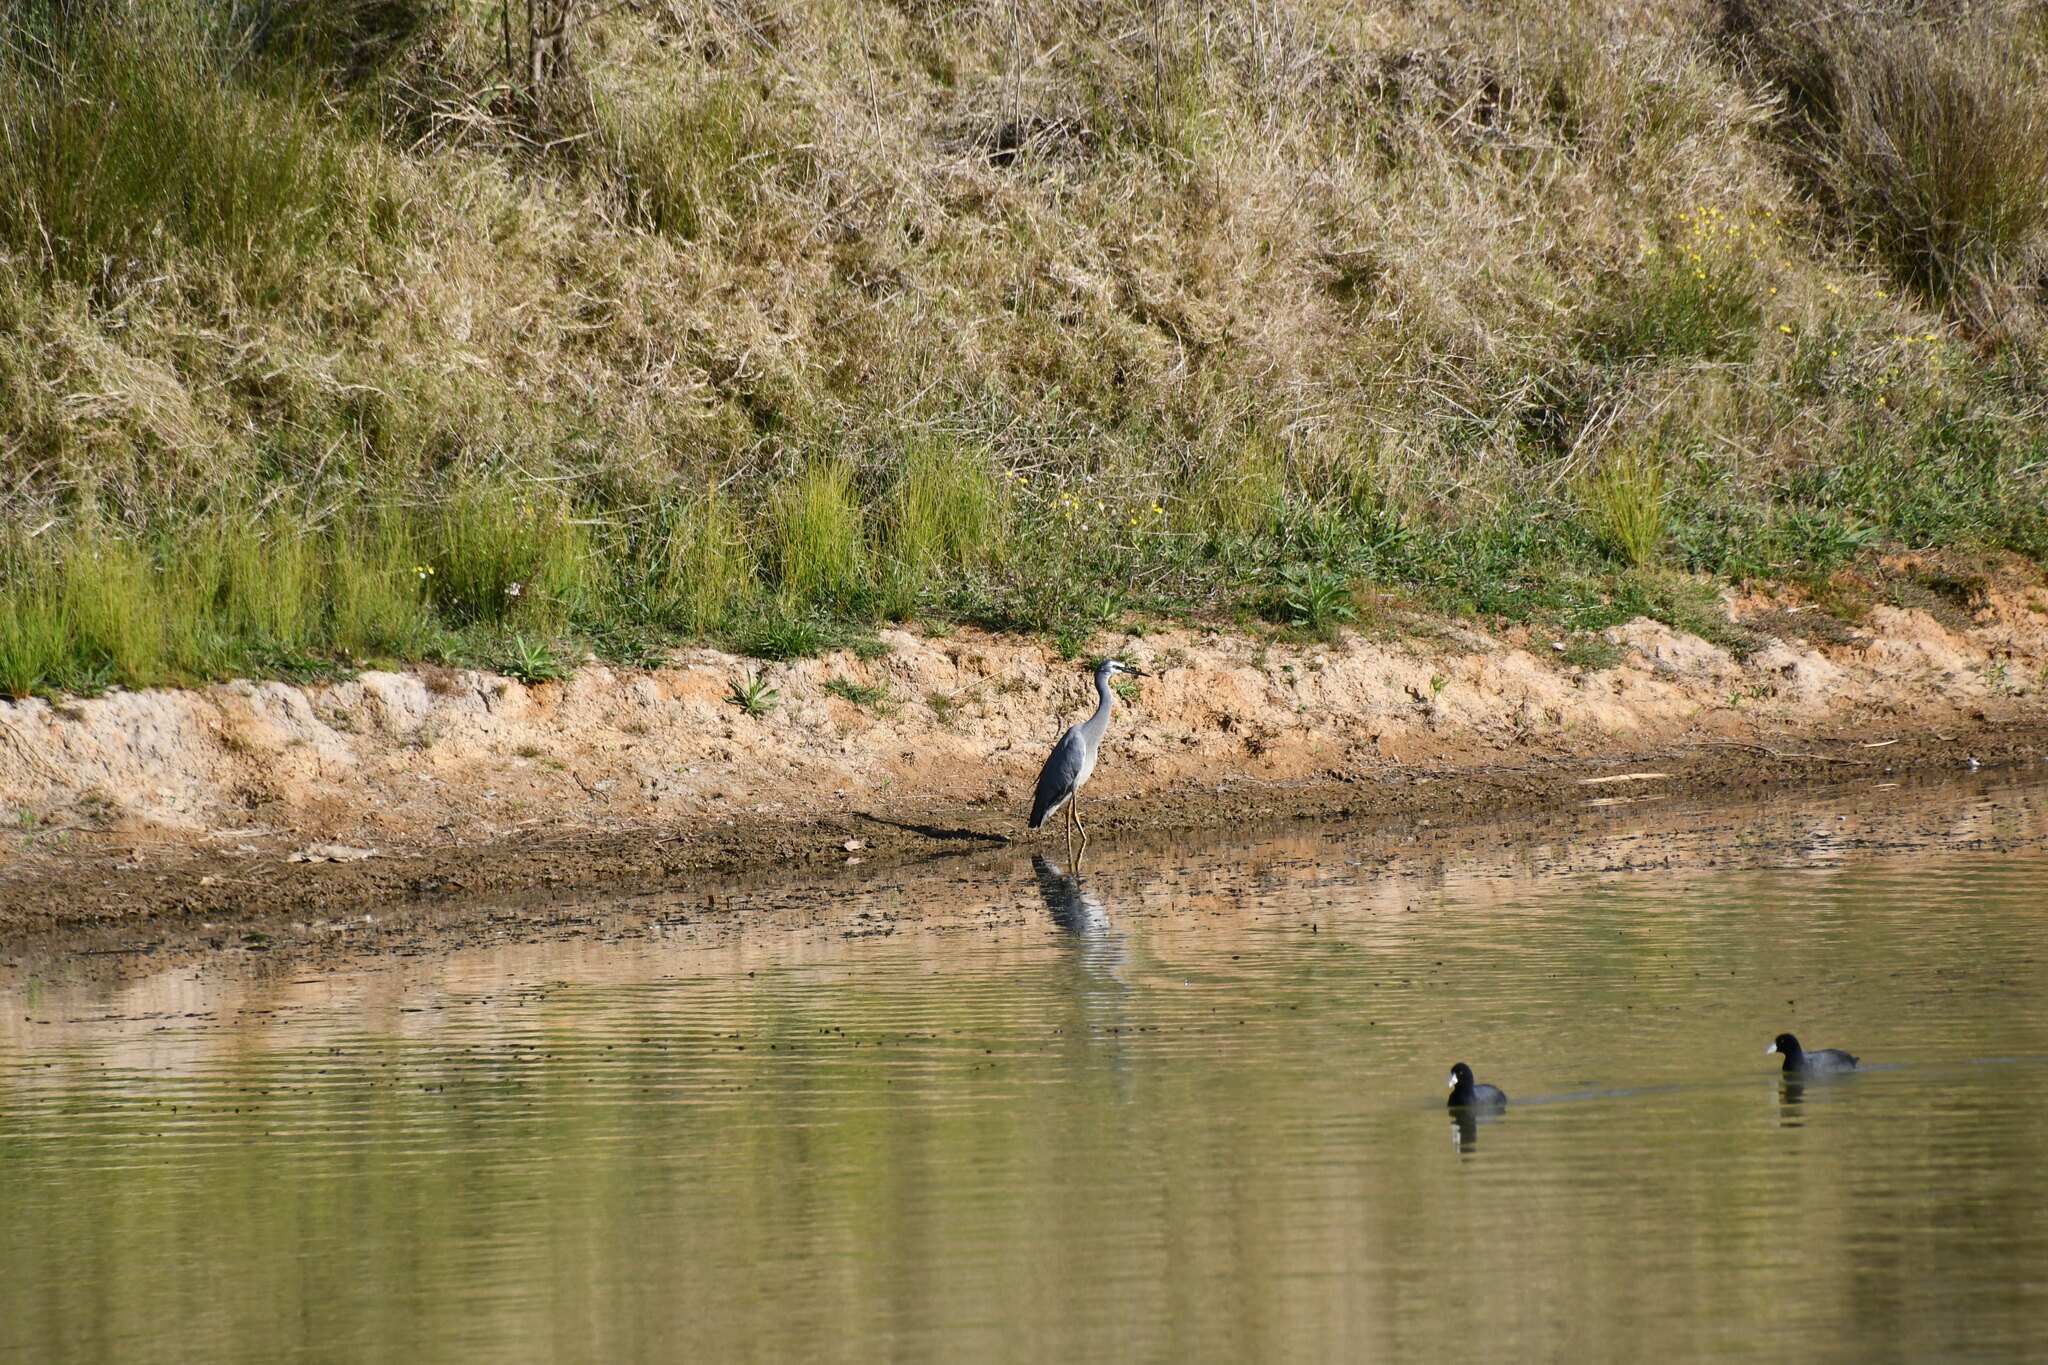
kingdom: Animalia
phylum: Chordata
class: Aves
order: Pelecaniformes
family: Ardeidae
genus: Egretta
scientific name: Egretta novaehollandiae
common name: White-faced heron
